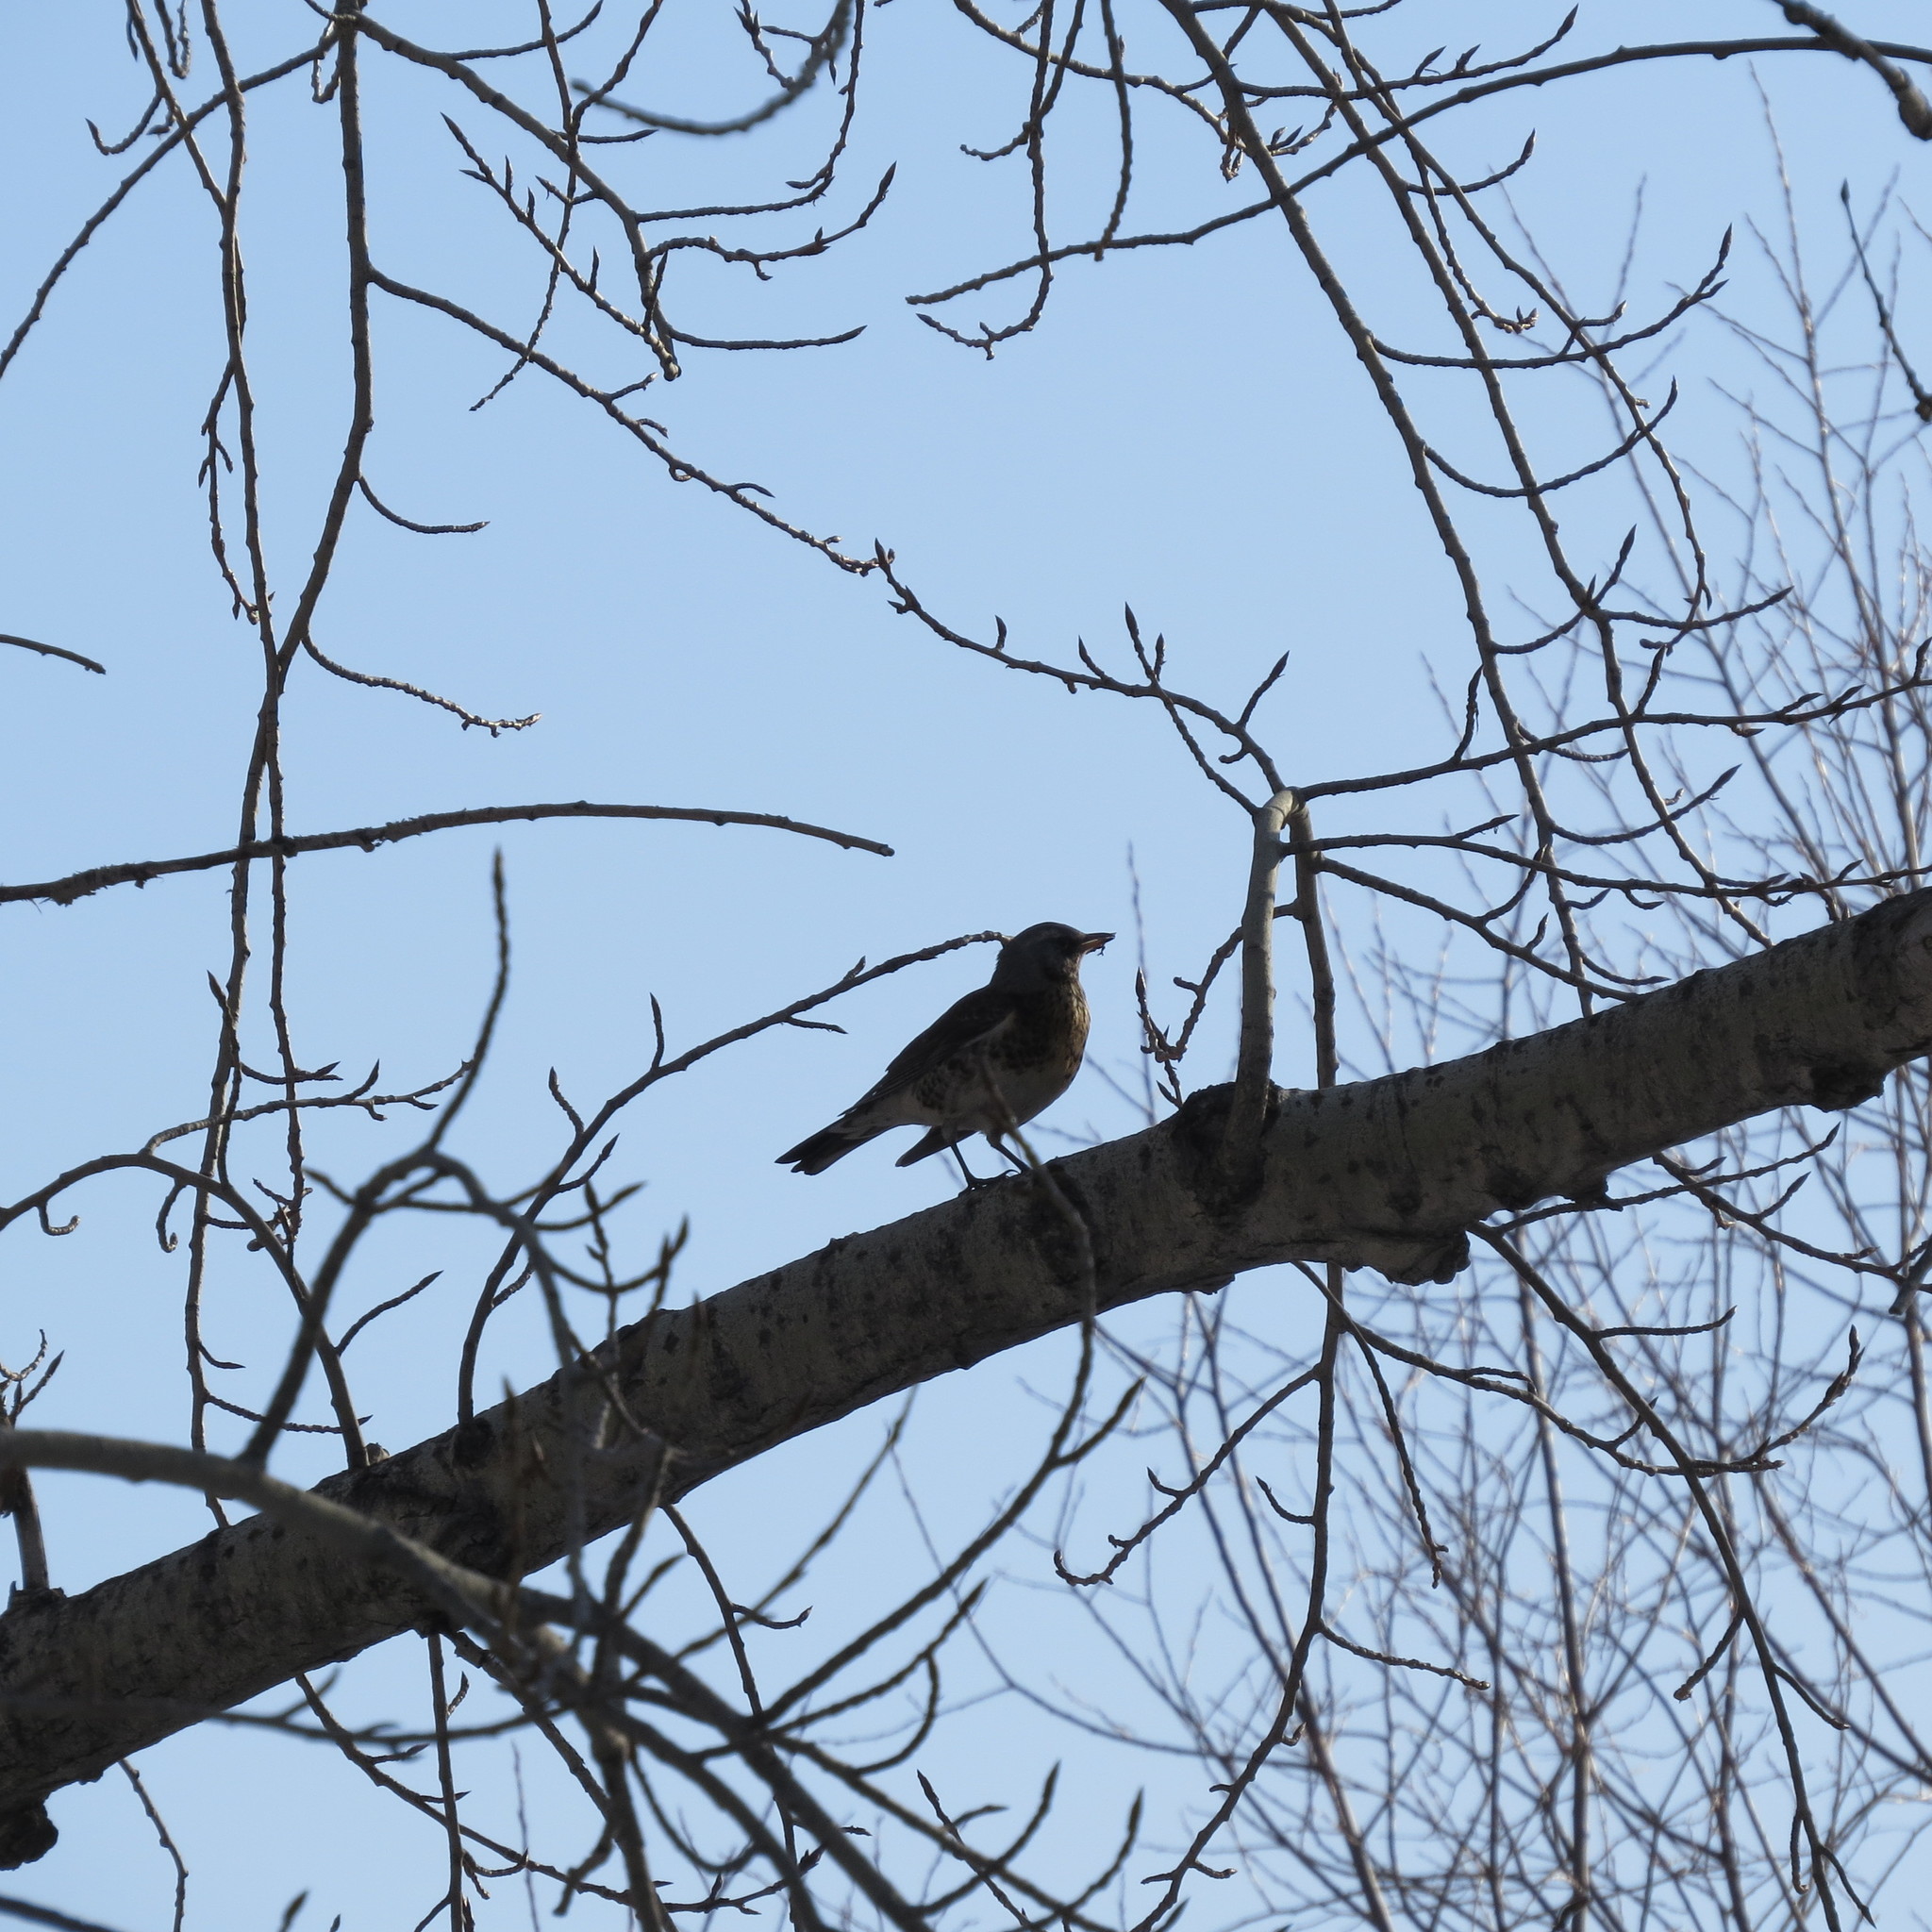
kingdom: Animalia
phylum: Chordata
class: Aves
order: Passeriformes
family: Turdidae
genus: Turdus
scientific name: Turdus pilaris
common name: Fieldfare
